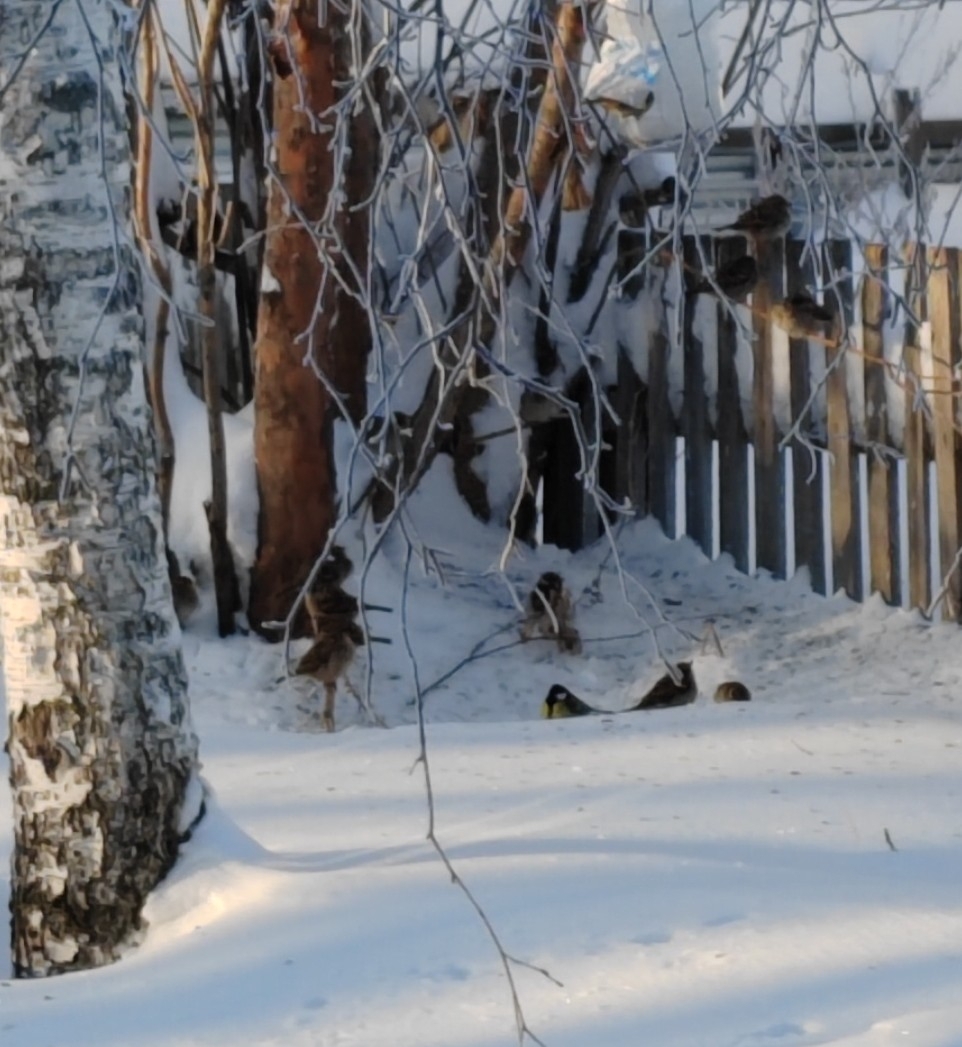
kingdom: Animalia
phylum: Chordata
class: Aves
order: Passeriformes
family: Paridae
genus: Parus
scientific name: Parus major
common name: Great tit
